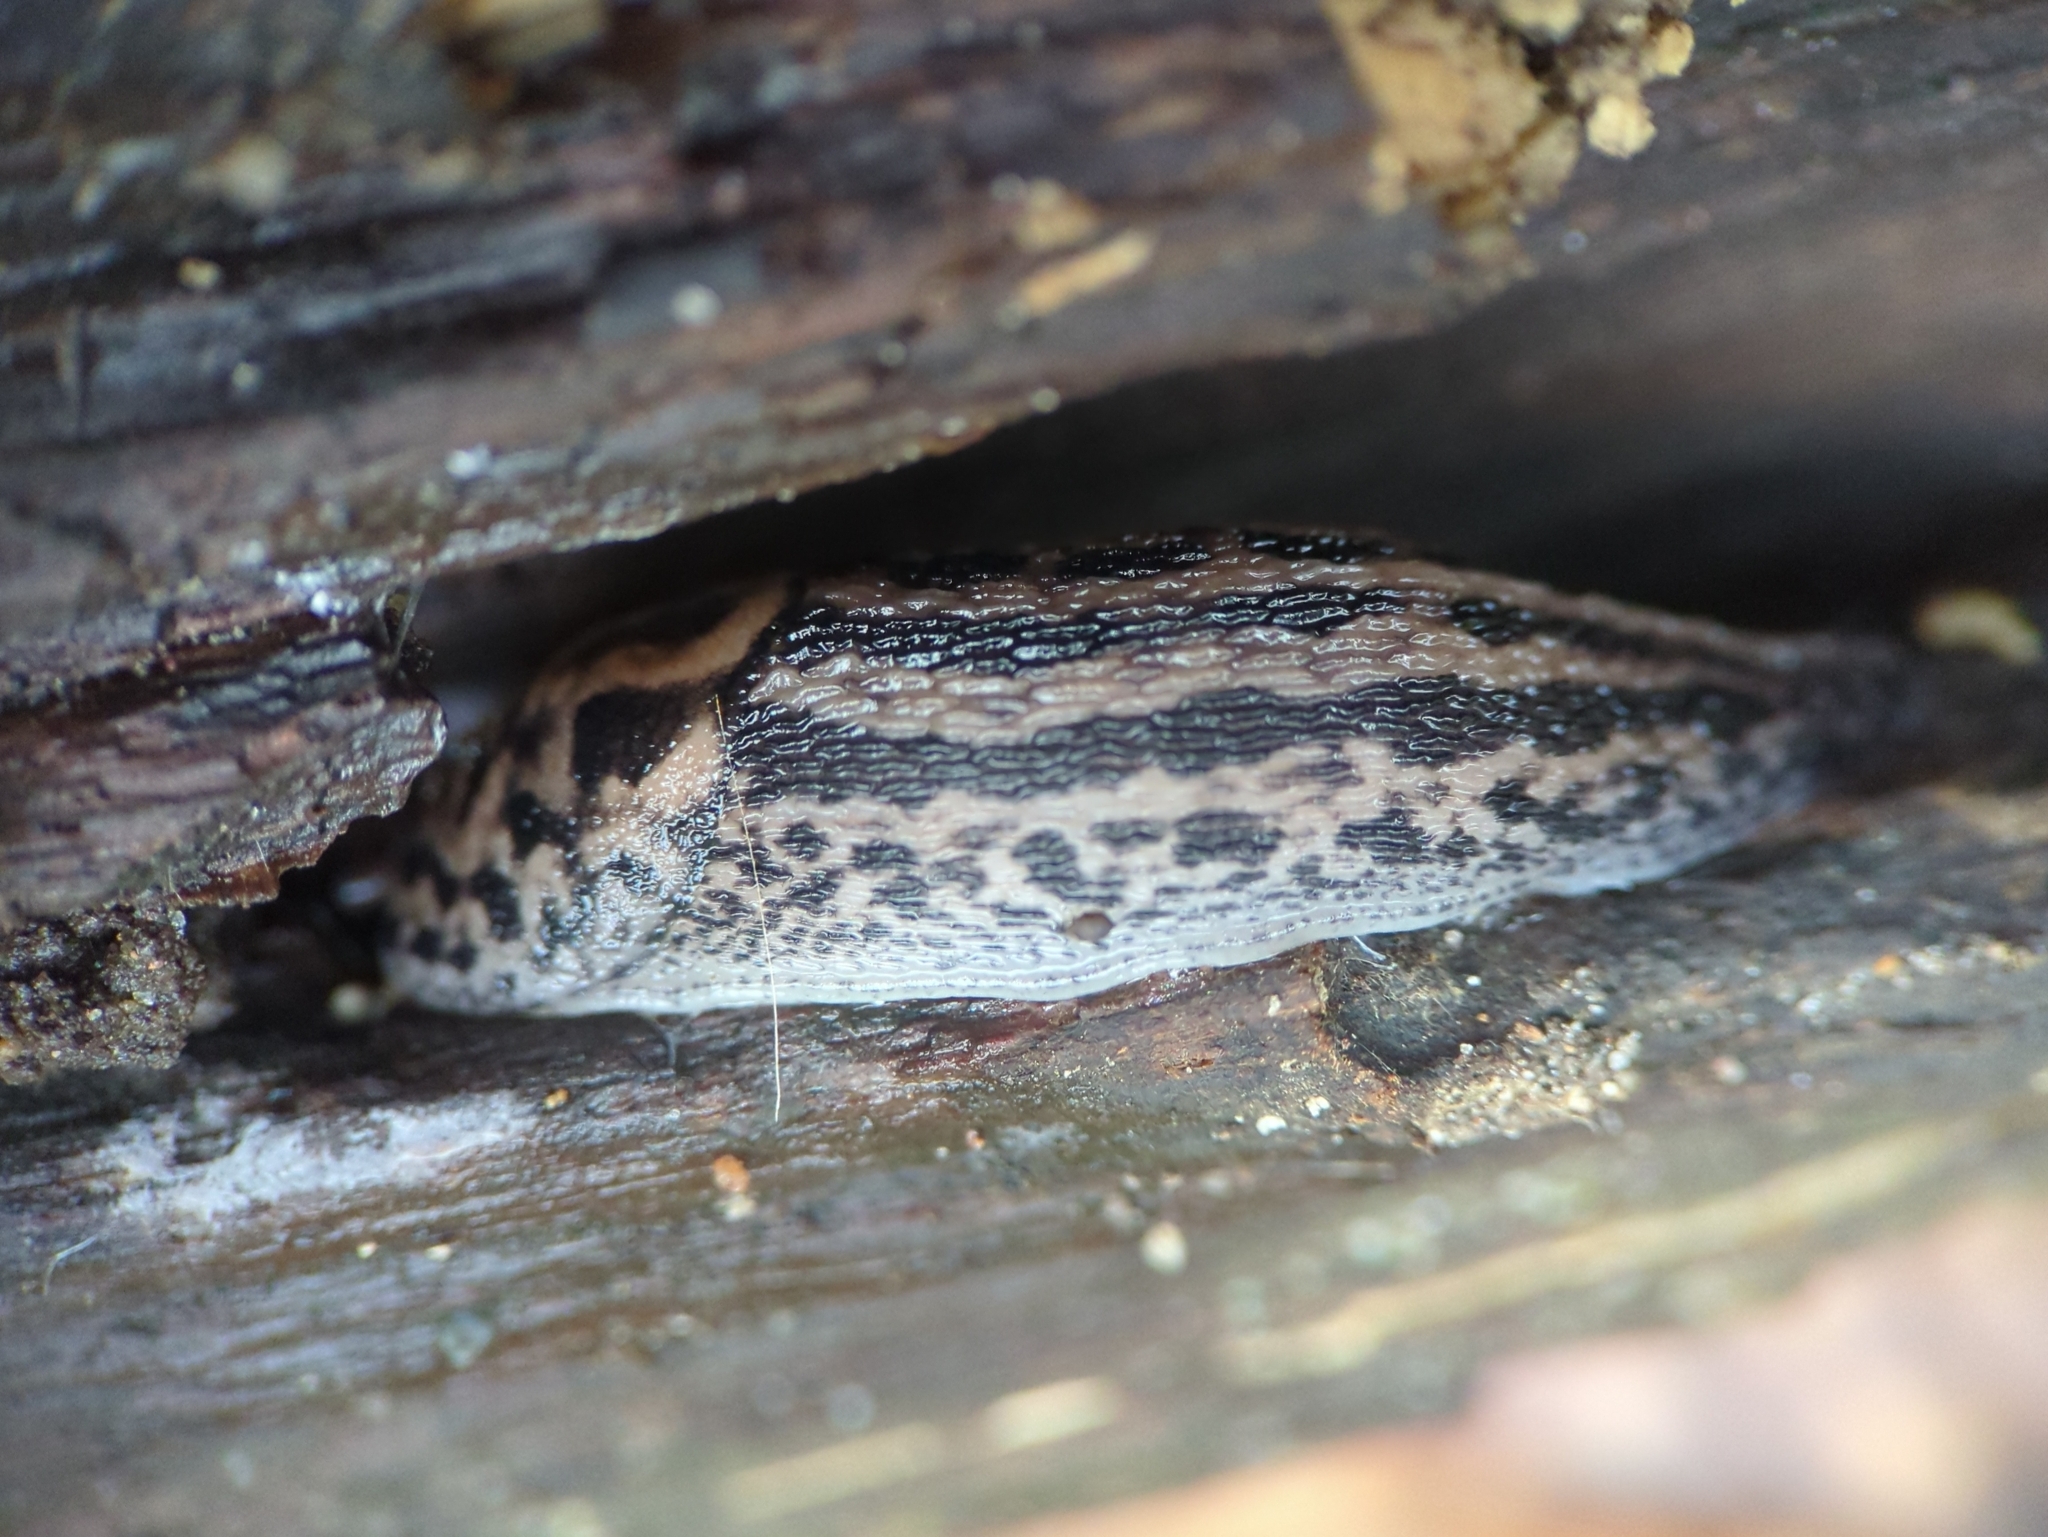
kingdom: Animalia
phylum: Mollusca
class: Gastropoda
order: Stylommatophora
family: Limacidae
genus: Limax
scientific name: Limax maximus
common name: Great grey slug
